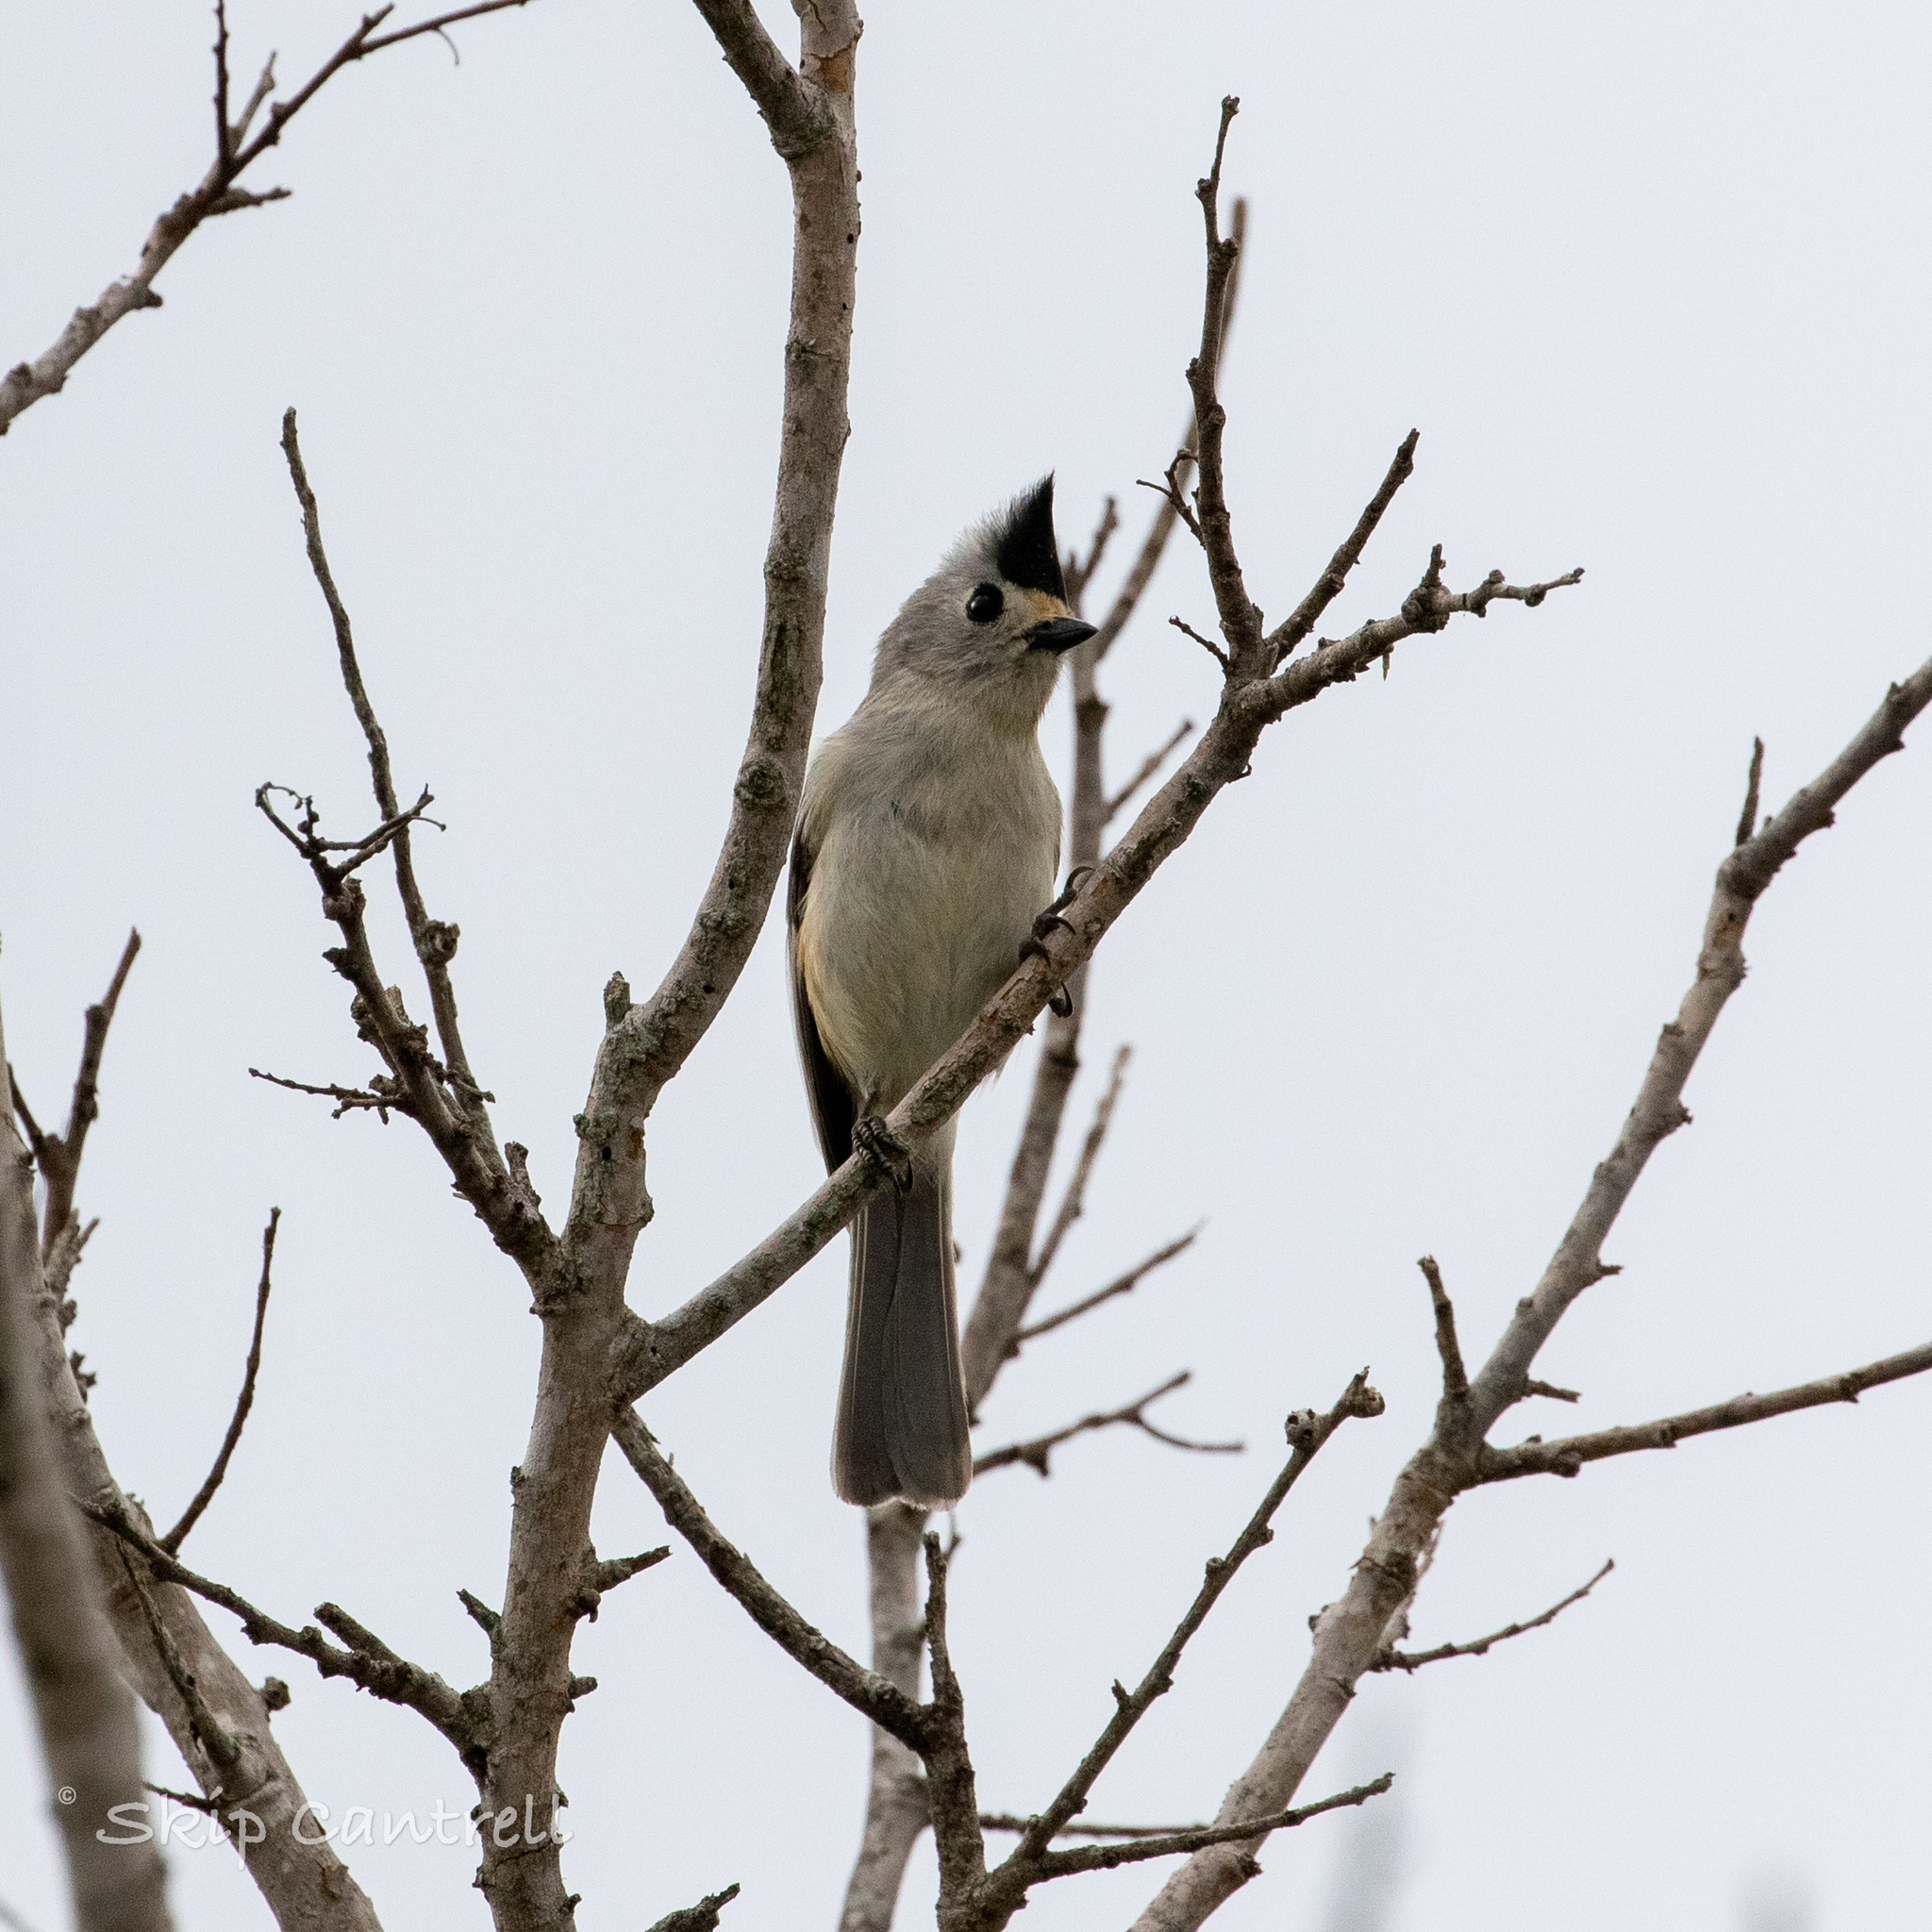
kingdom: Animalia
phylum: Chordata
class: Aves
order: Passeriformes
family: Paridae
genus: Baeolophus
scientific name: Baeolophus atricristatus
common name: Black-crested titmouse
